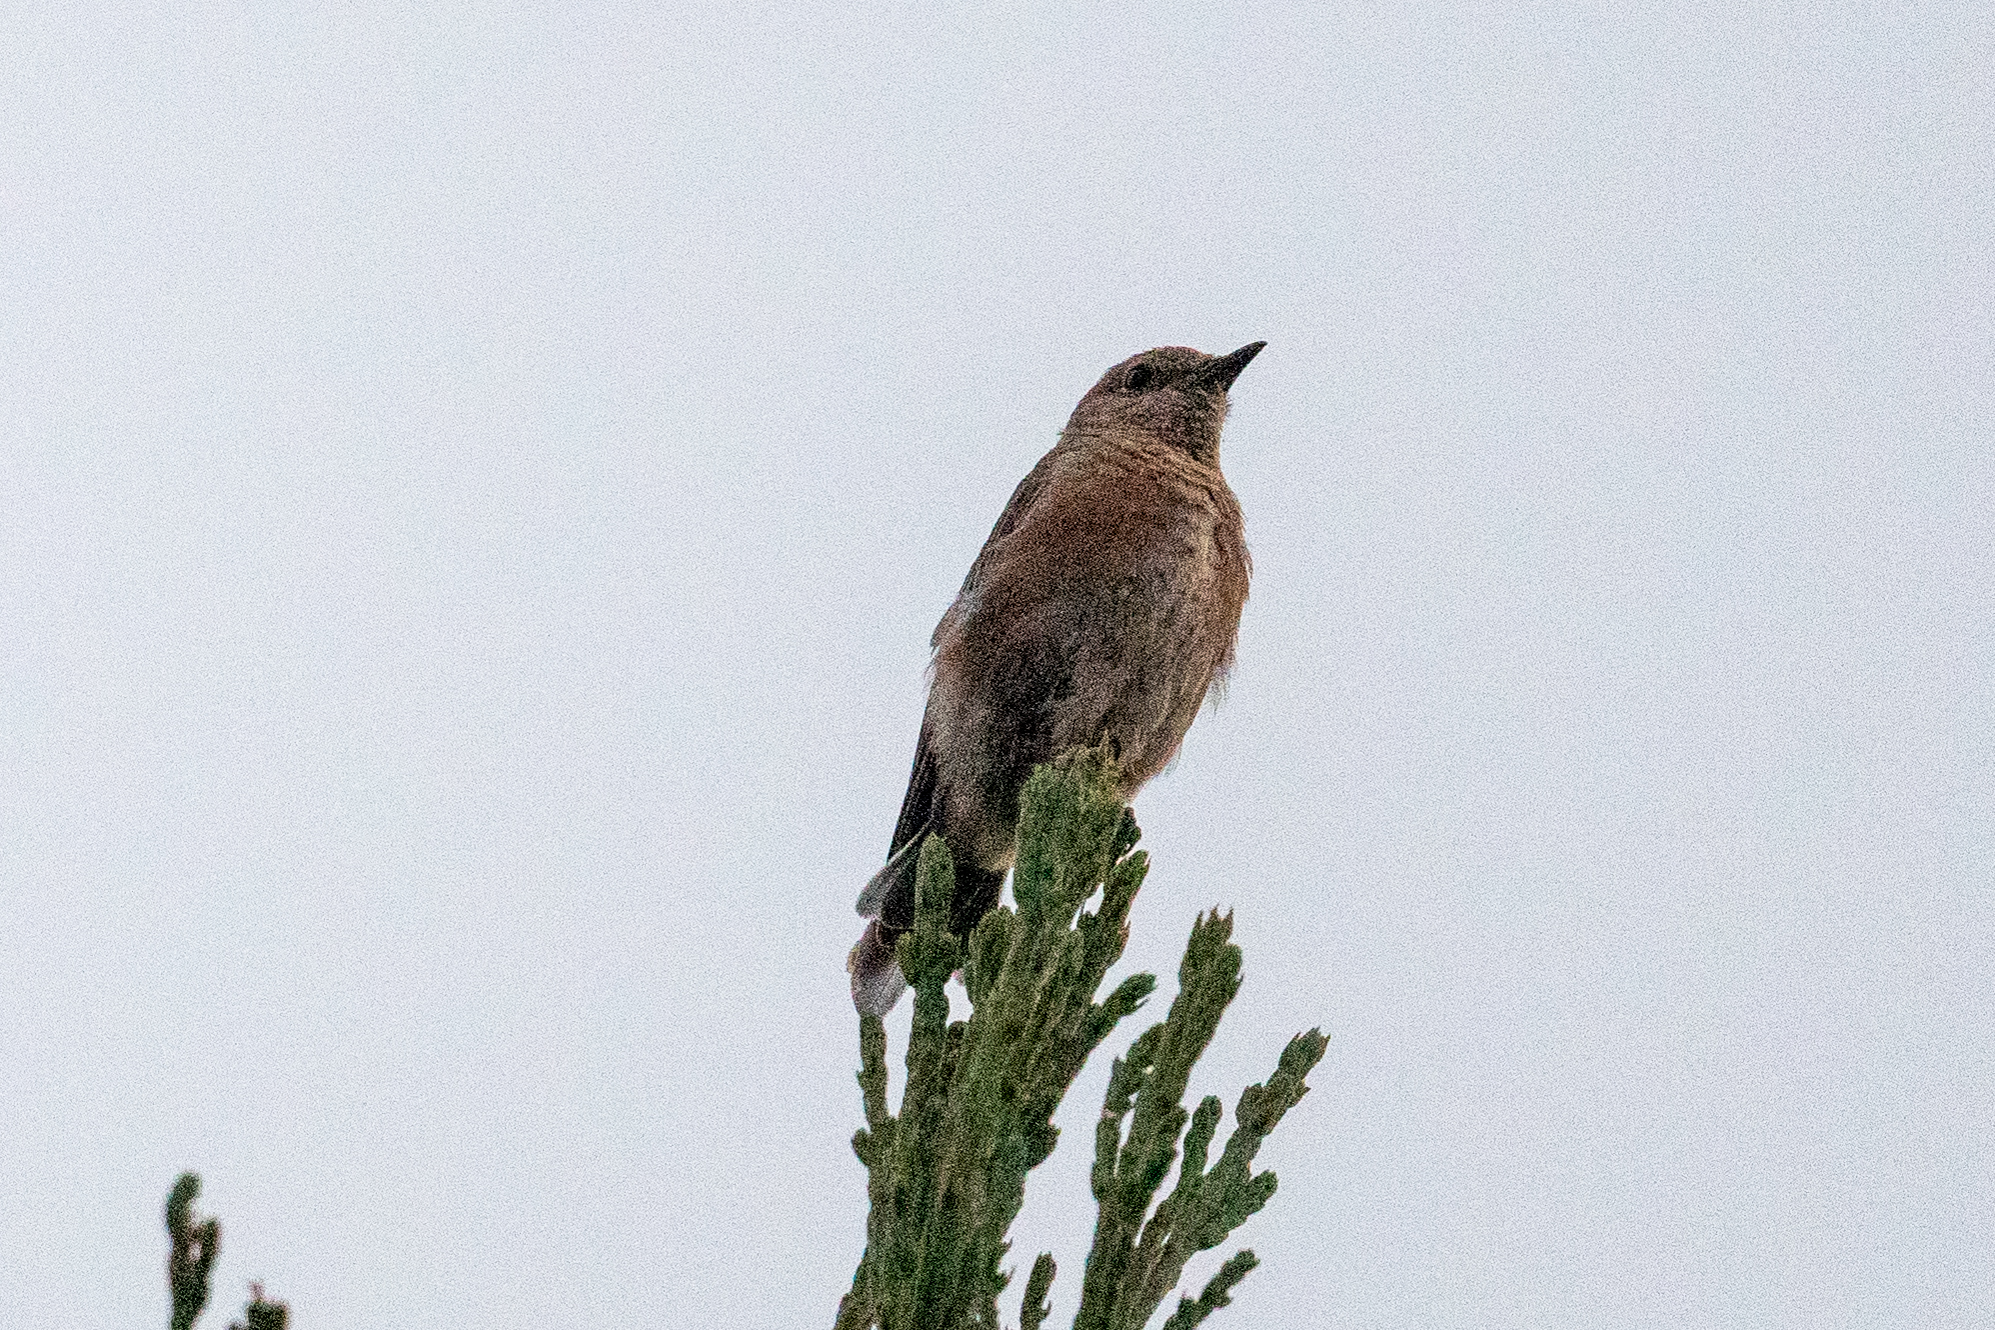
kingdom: Animalia
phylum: Chordata
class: Aves
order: Passeriformes
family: Turdidae
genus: Sialia
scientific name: Sialia mexicana
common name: Western bluebird
